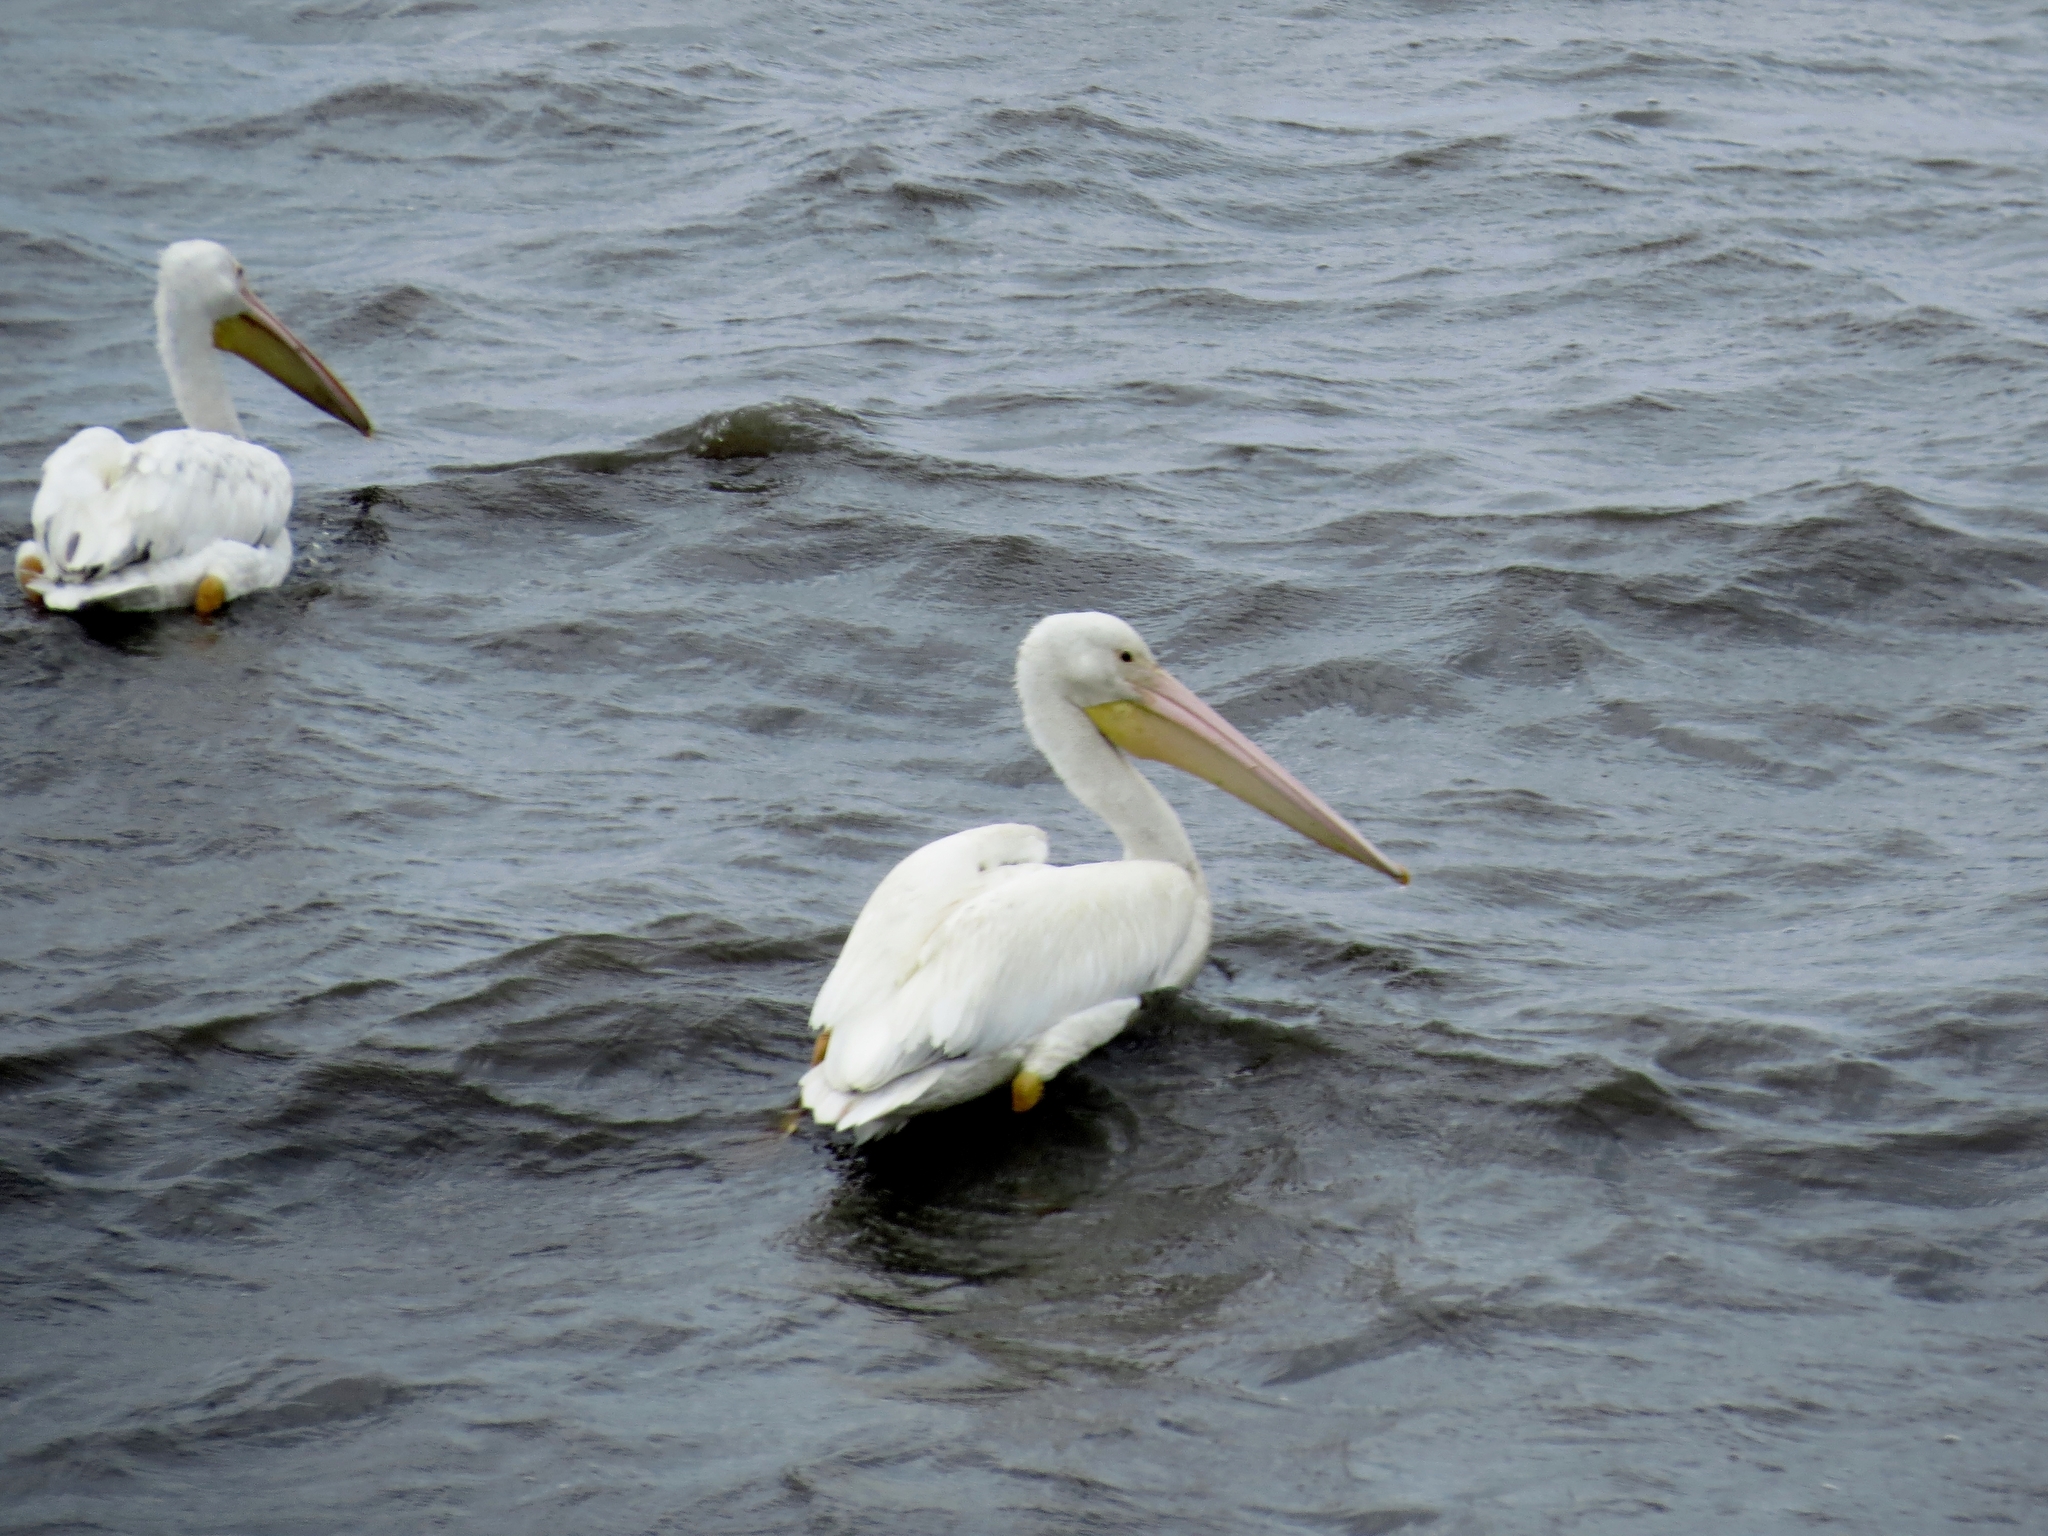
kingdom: Animalia
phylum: Chordata
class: Aves
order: Pelecaniformes
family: Pelecanidae
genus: Pelecanus
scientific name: Pelecanus erythrorhynchos
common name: American white pelican
